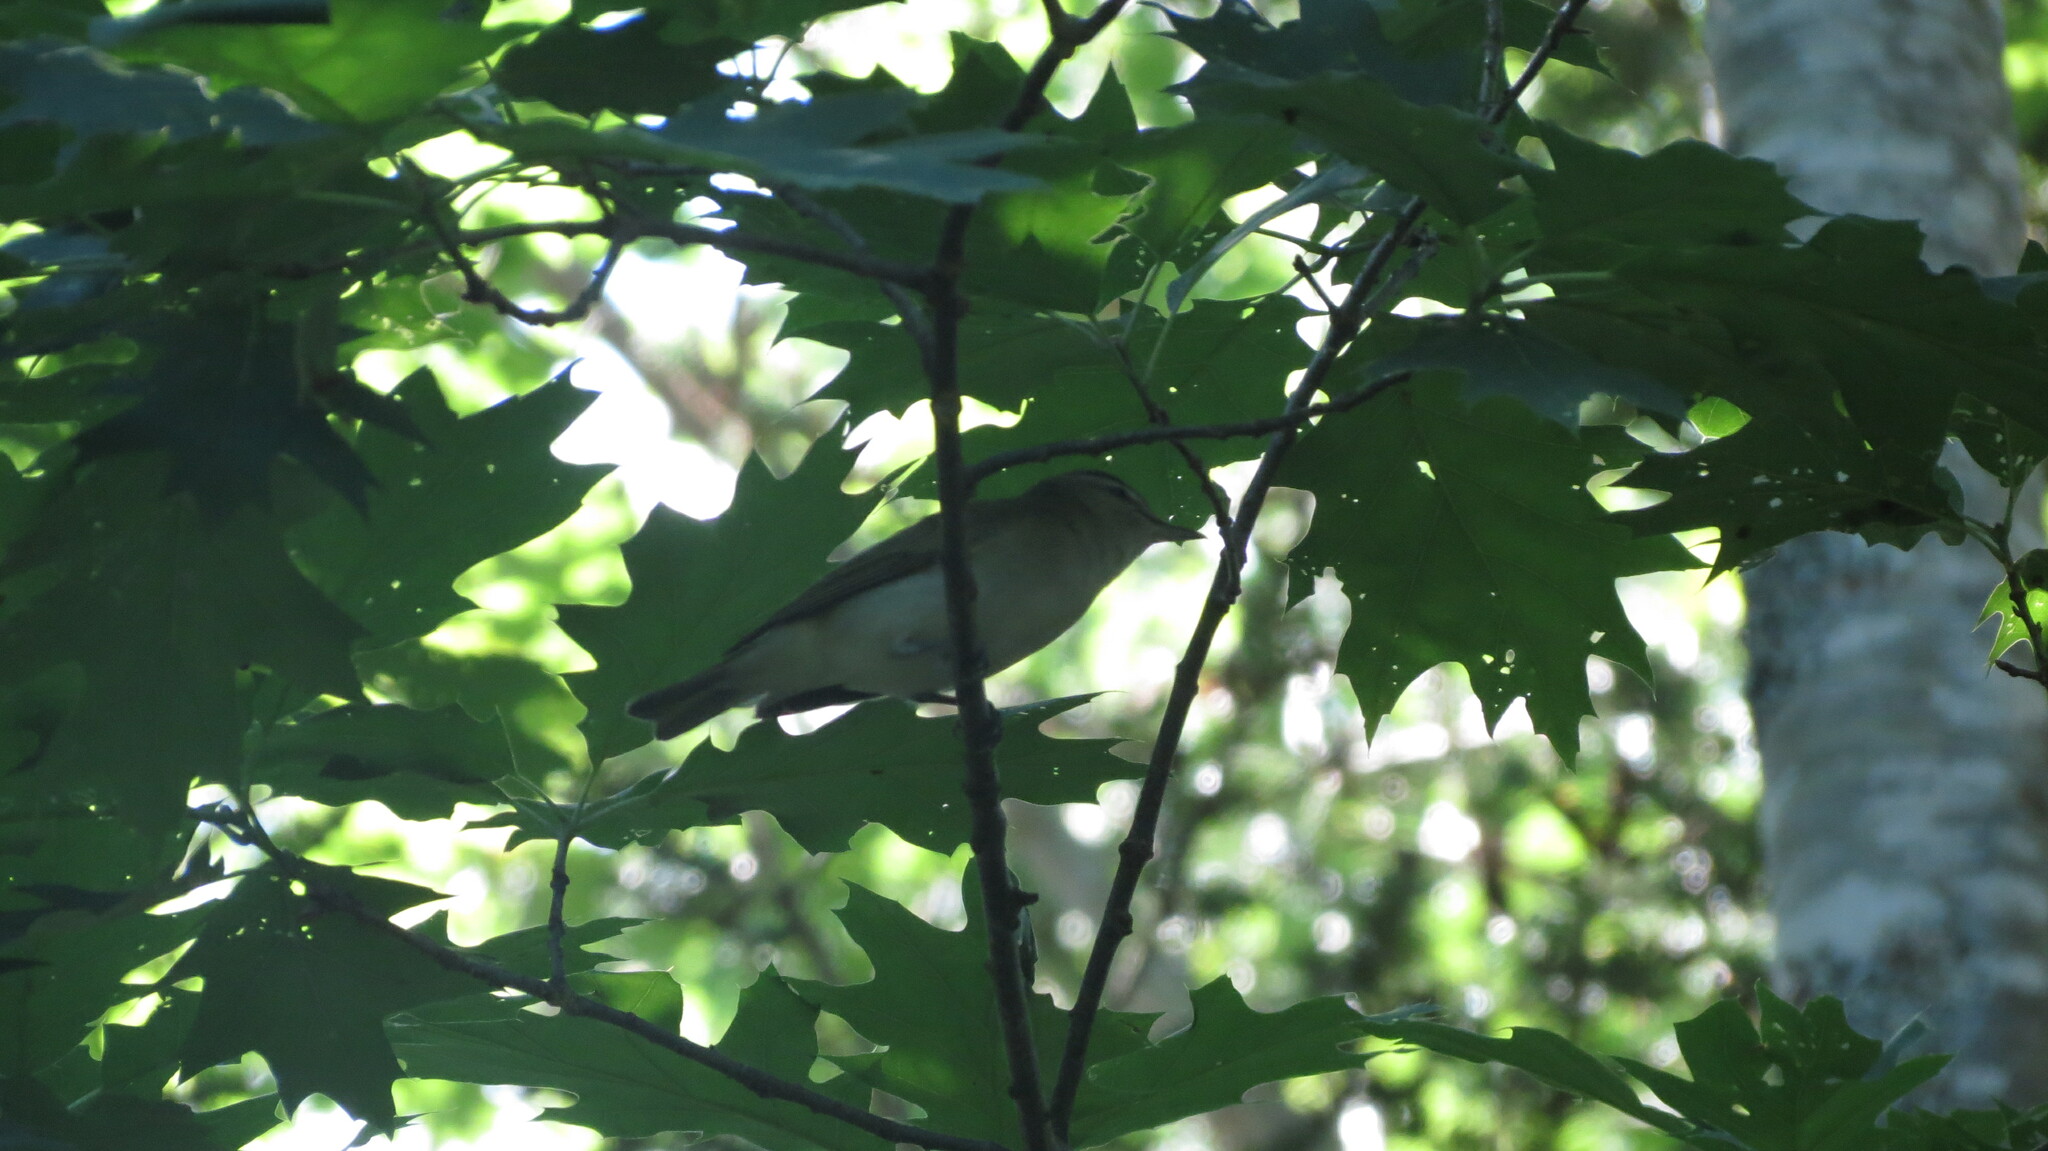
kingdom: Animalia
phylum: Chordata
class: Aves
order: Passeriformes
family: Vireonidae
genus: Vireo
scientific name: Vireo olivaceus
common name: Red-eyed vireo
